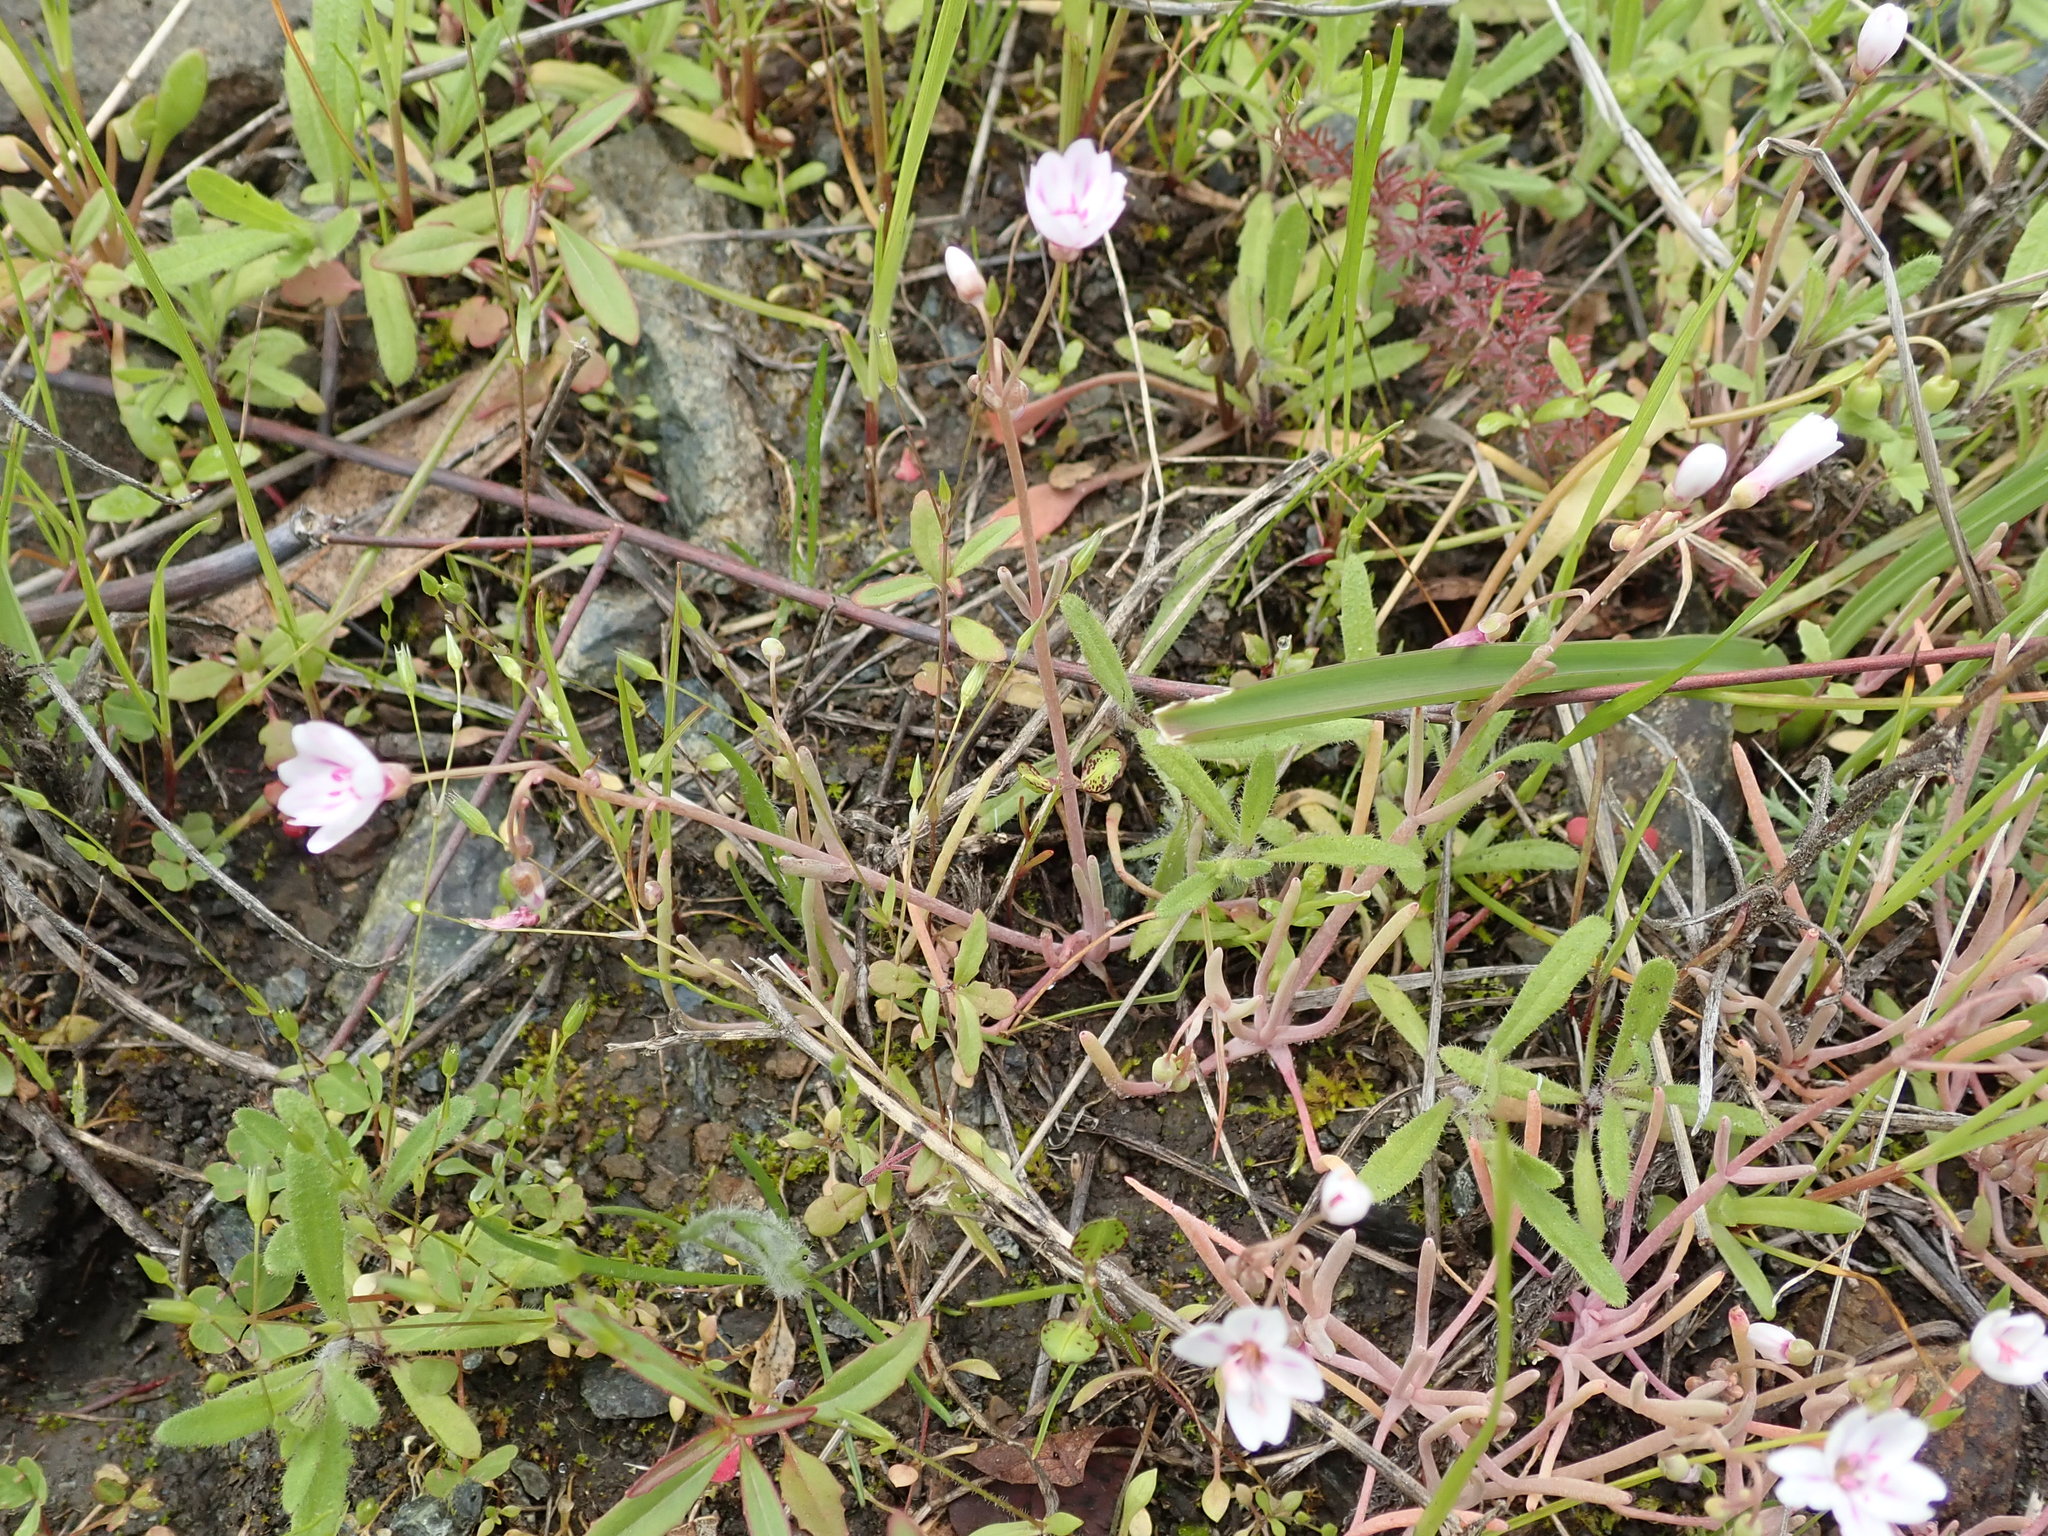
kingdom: Plantae
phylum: Tracheophyta
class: Magnoliopsida
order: Caryophyllales
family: Montiaceae
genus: Claytonia
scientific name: Claytonia gypsophiloides
